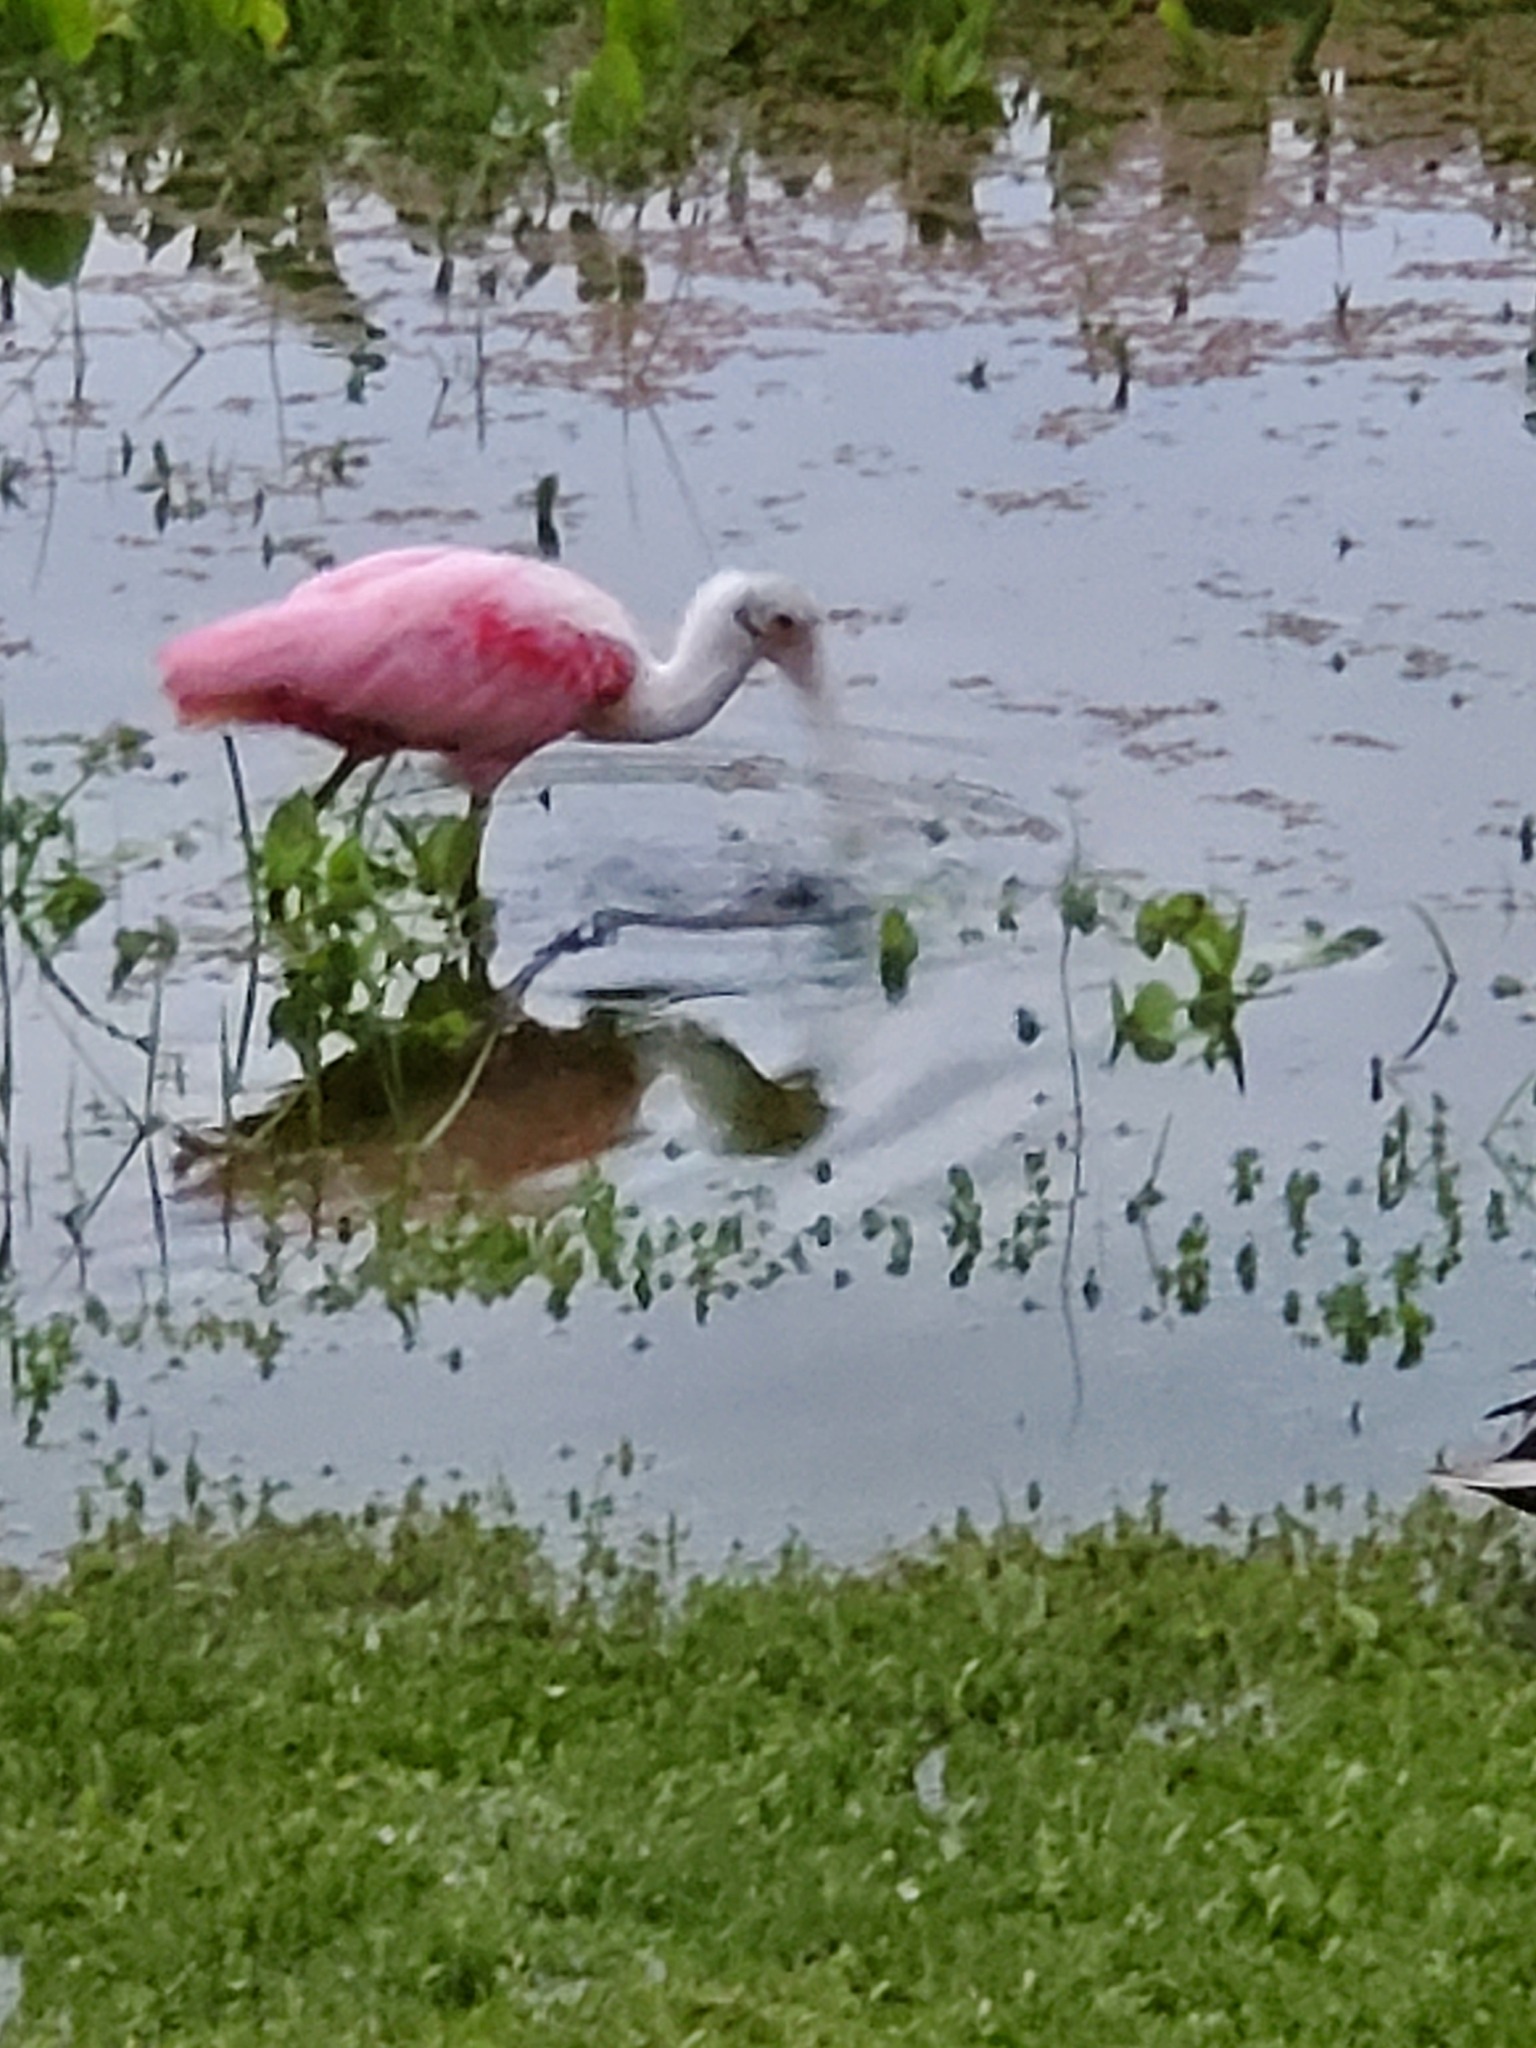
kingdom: Animalia
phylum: Chordata
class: Aves
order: Pelecaniformes
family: Threskiornithidae
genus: Platalea
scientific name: Platalea ajaja
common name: Roseate spoonbill
